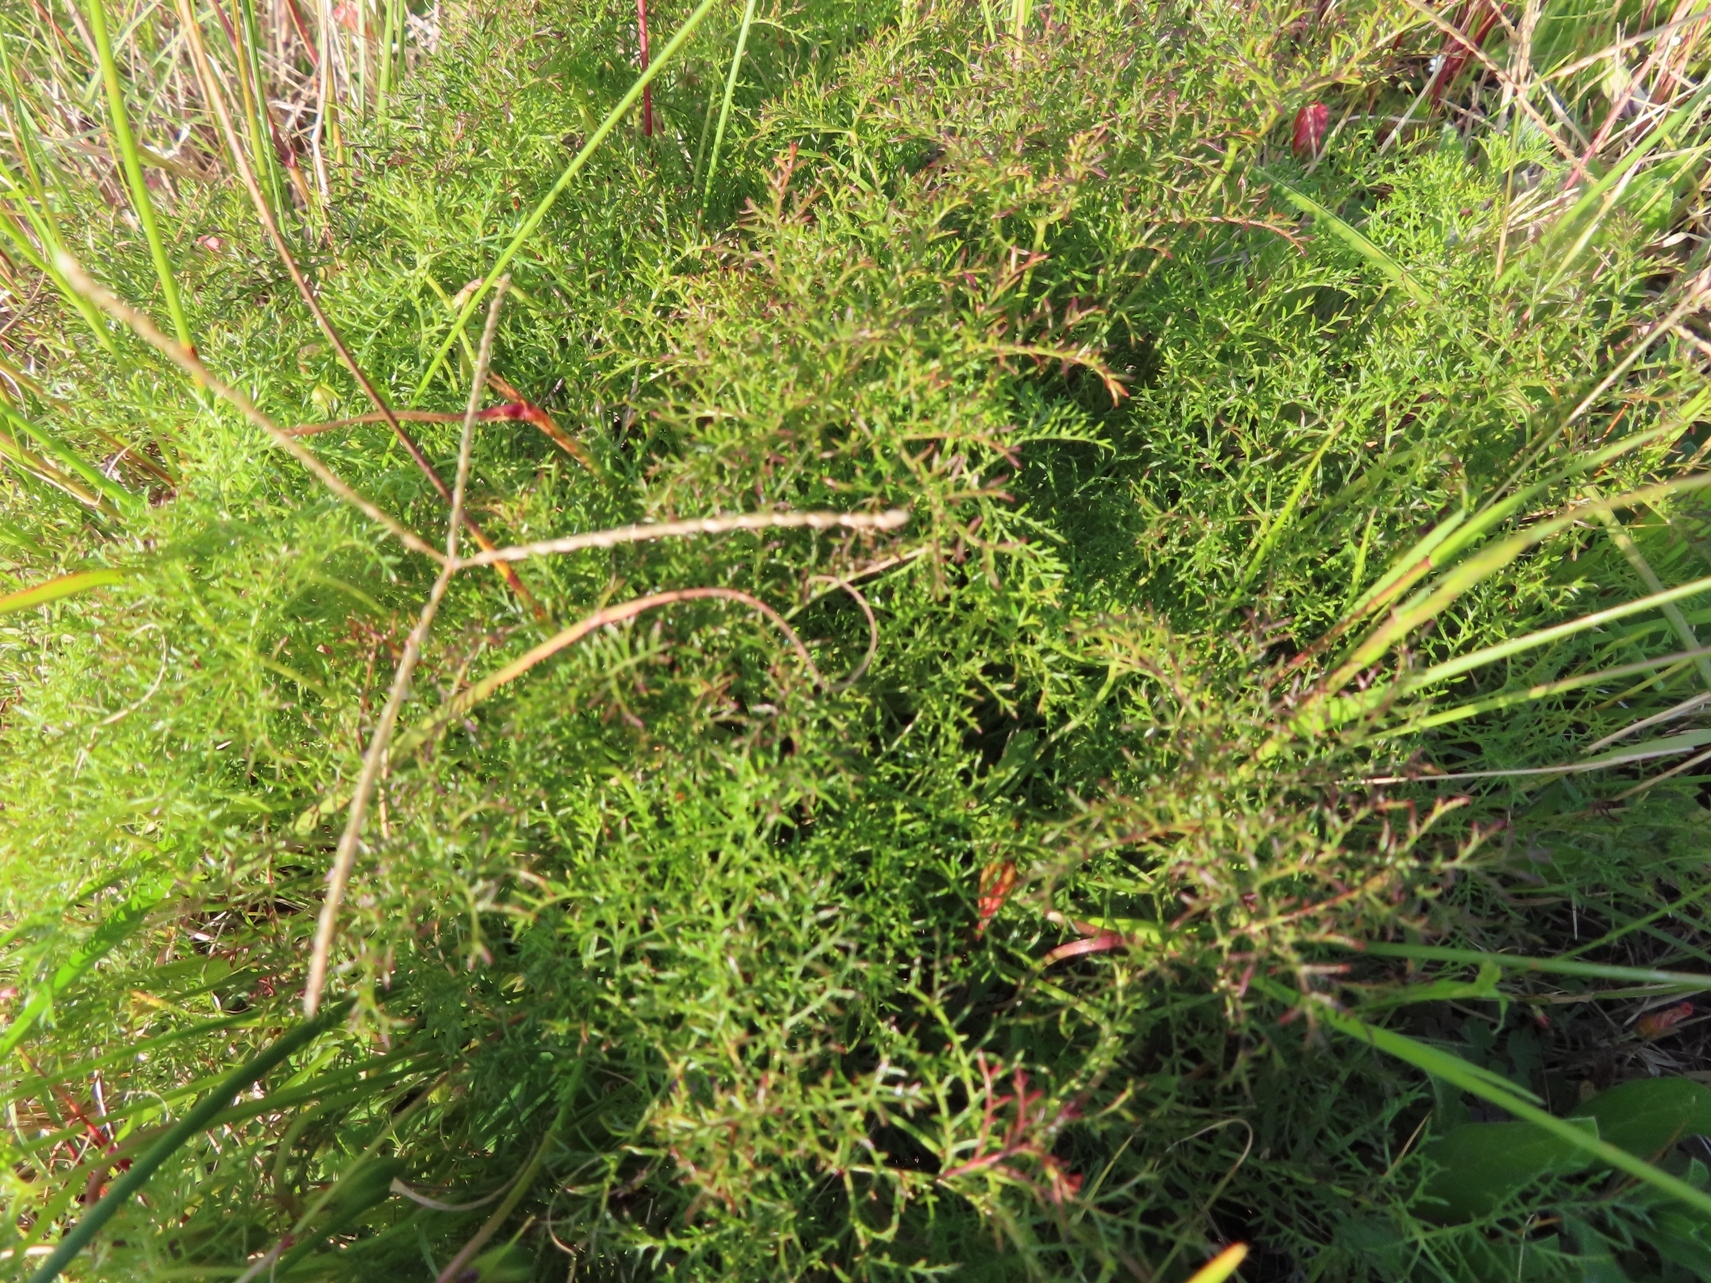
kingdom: Plantae
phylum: Tracheophyta
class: Magnoliopsida
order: Geraniales
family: Geraniaceae
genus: Monsonia
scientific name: Monsonia speciosa
